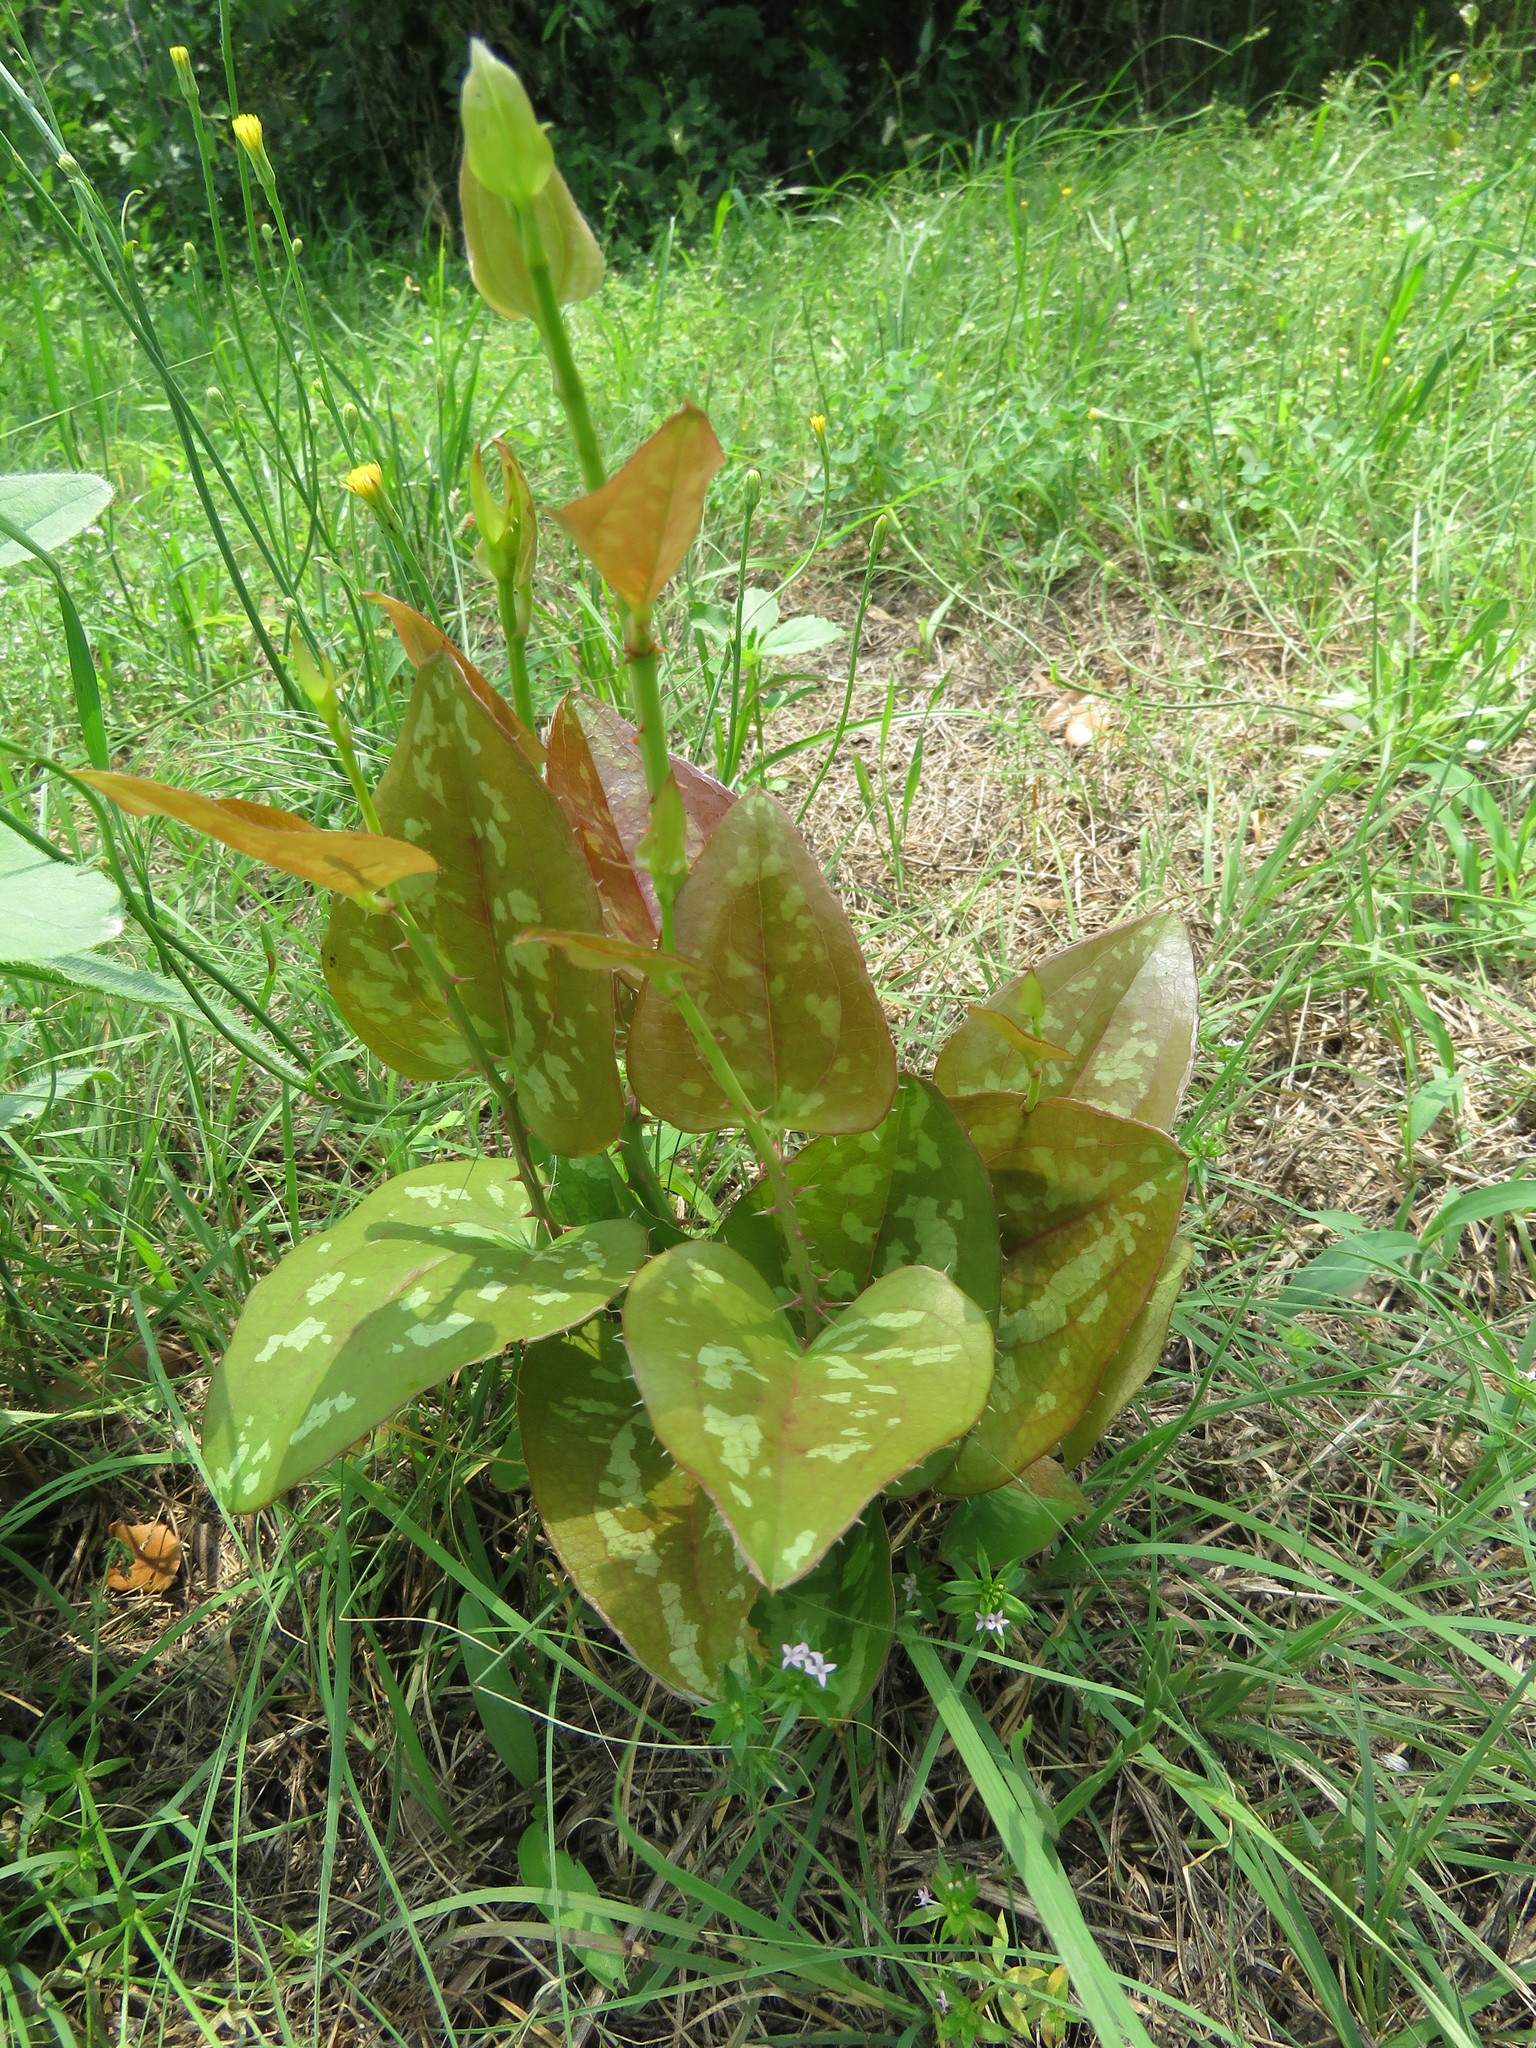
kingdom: Plantae
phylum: Tracheophyta
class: Liliopsida
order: Liliales
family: Smilacaceae
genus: Smilax
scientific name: Smilax bona-nox
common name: Catbrier
